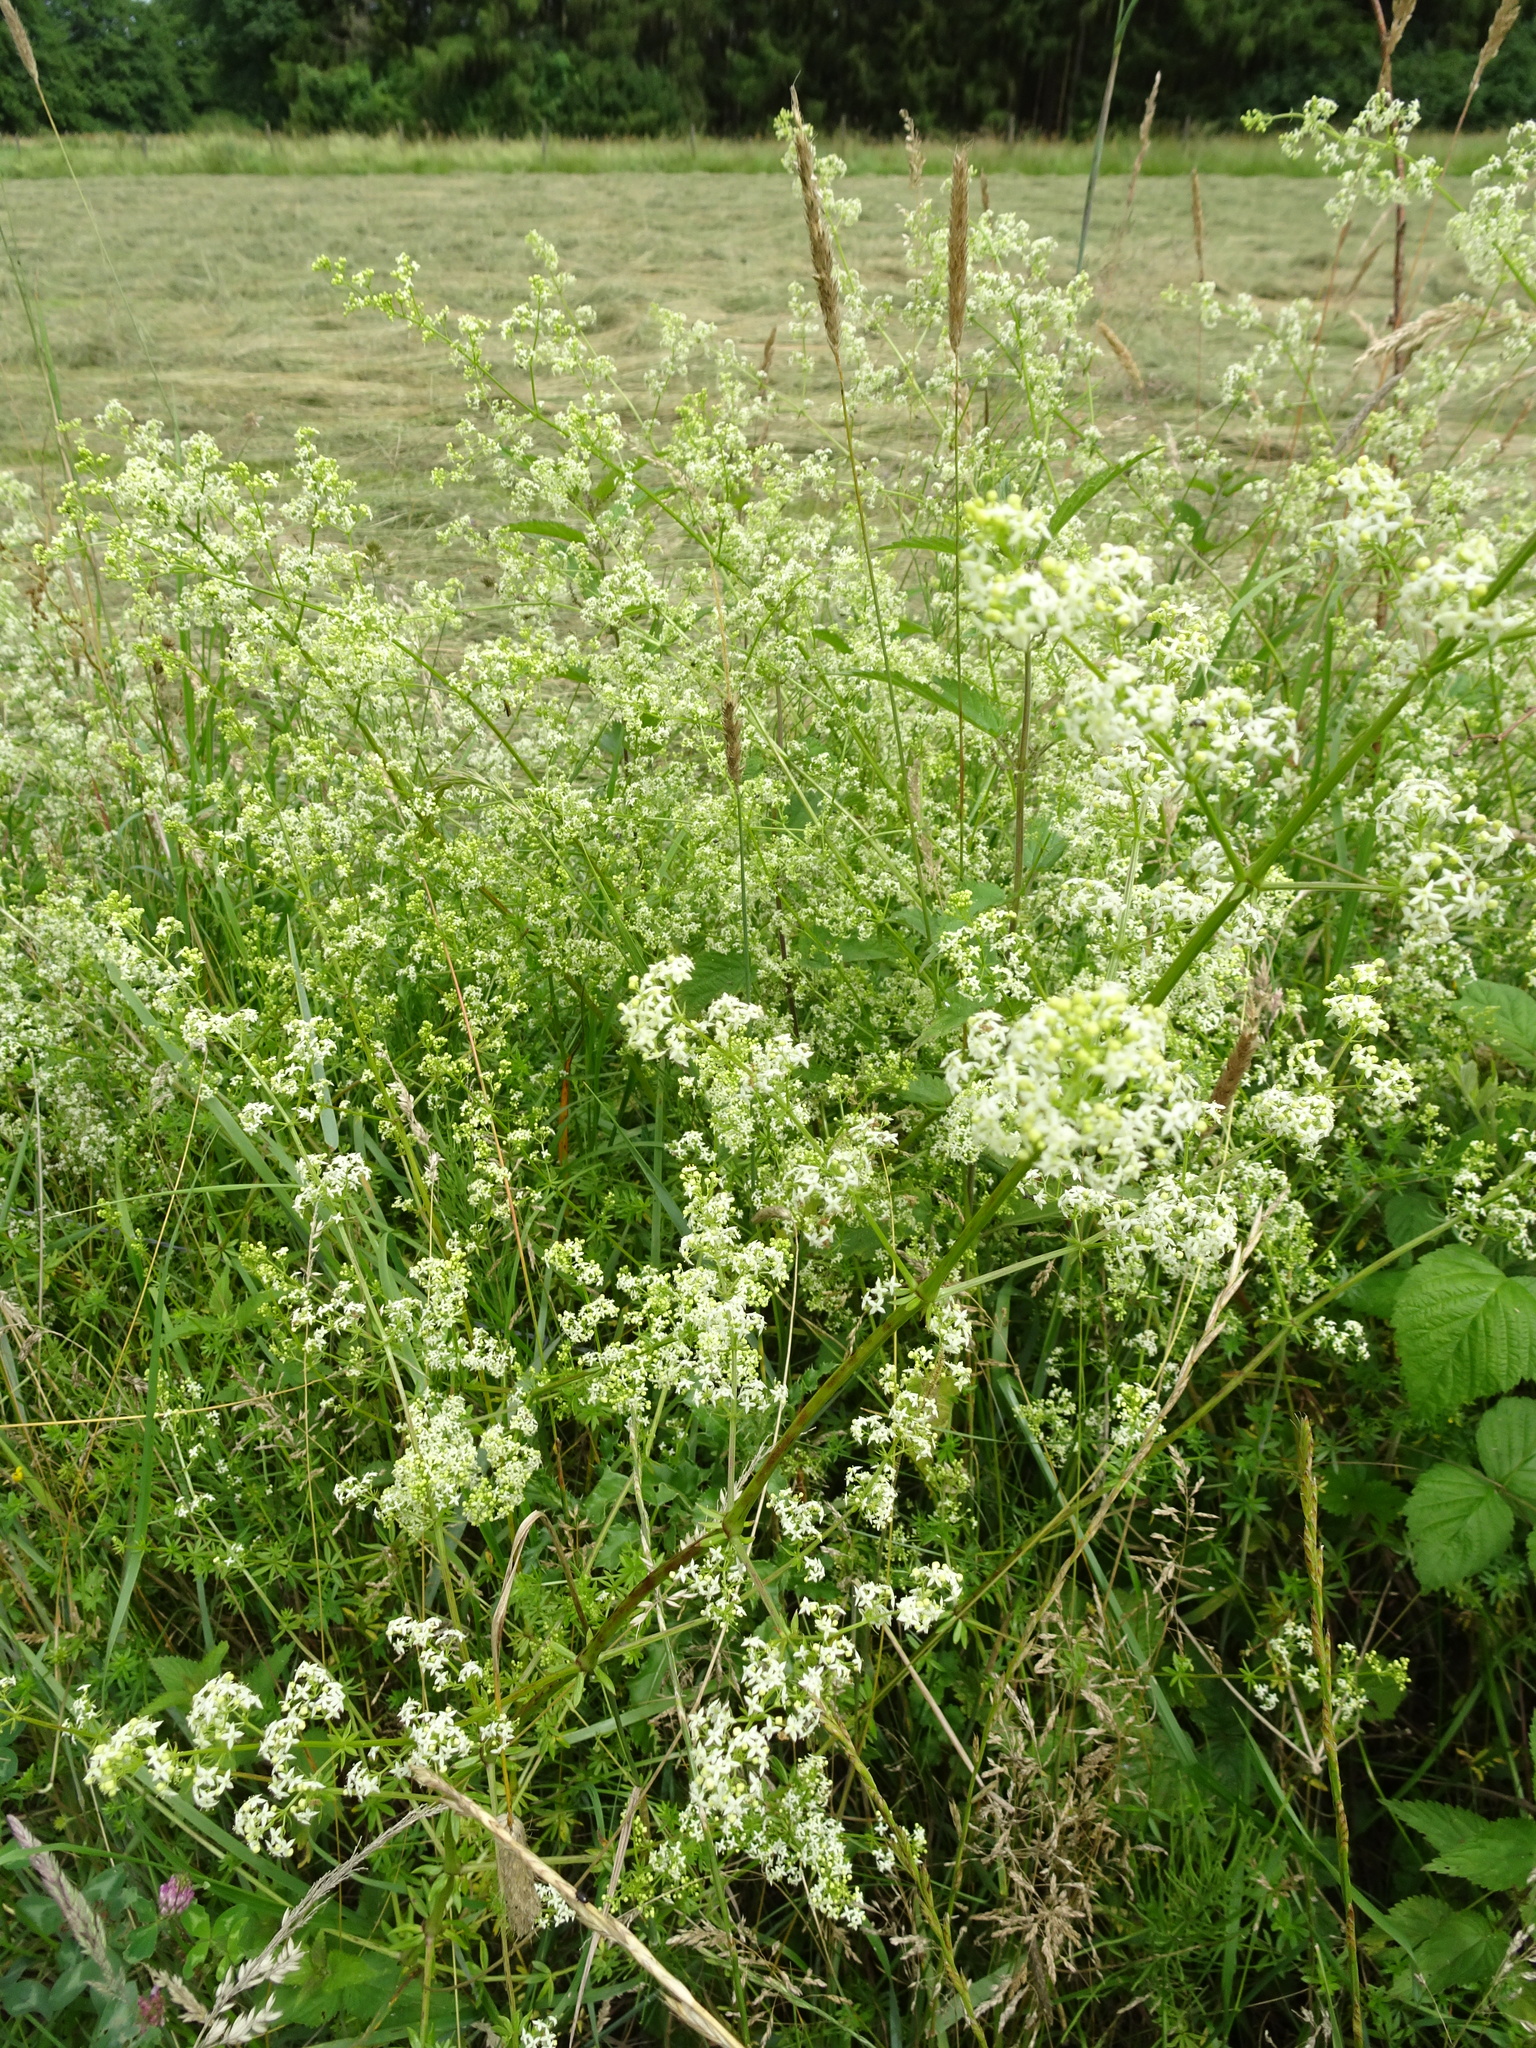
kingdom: Plantae
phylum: Tracheophyta
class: Magnoliopsida
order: Gentianales
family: Rubiaceae
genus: Galium
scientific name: Galium mollugo
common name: Hedge bedstraw
